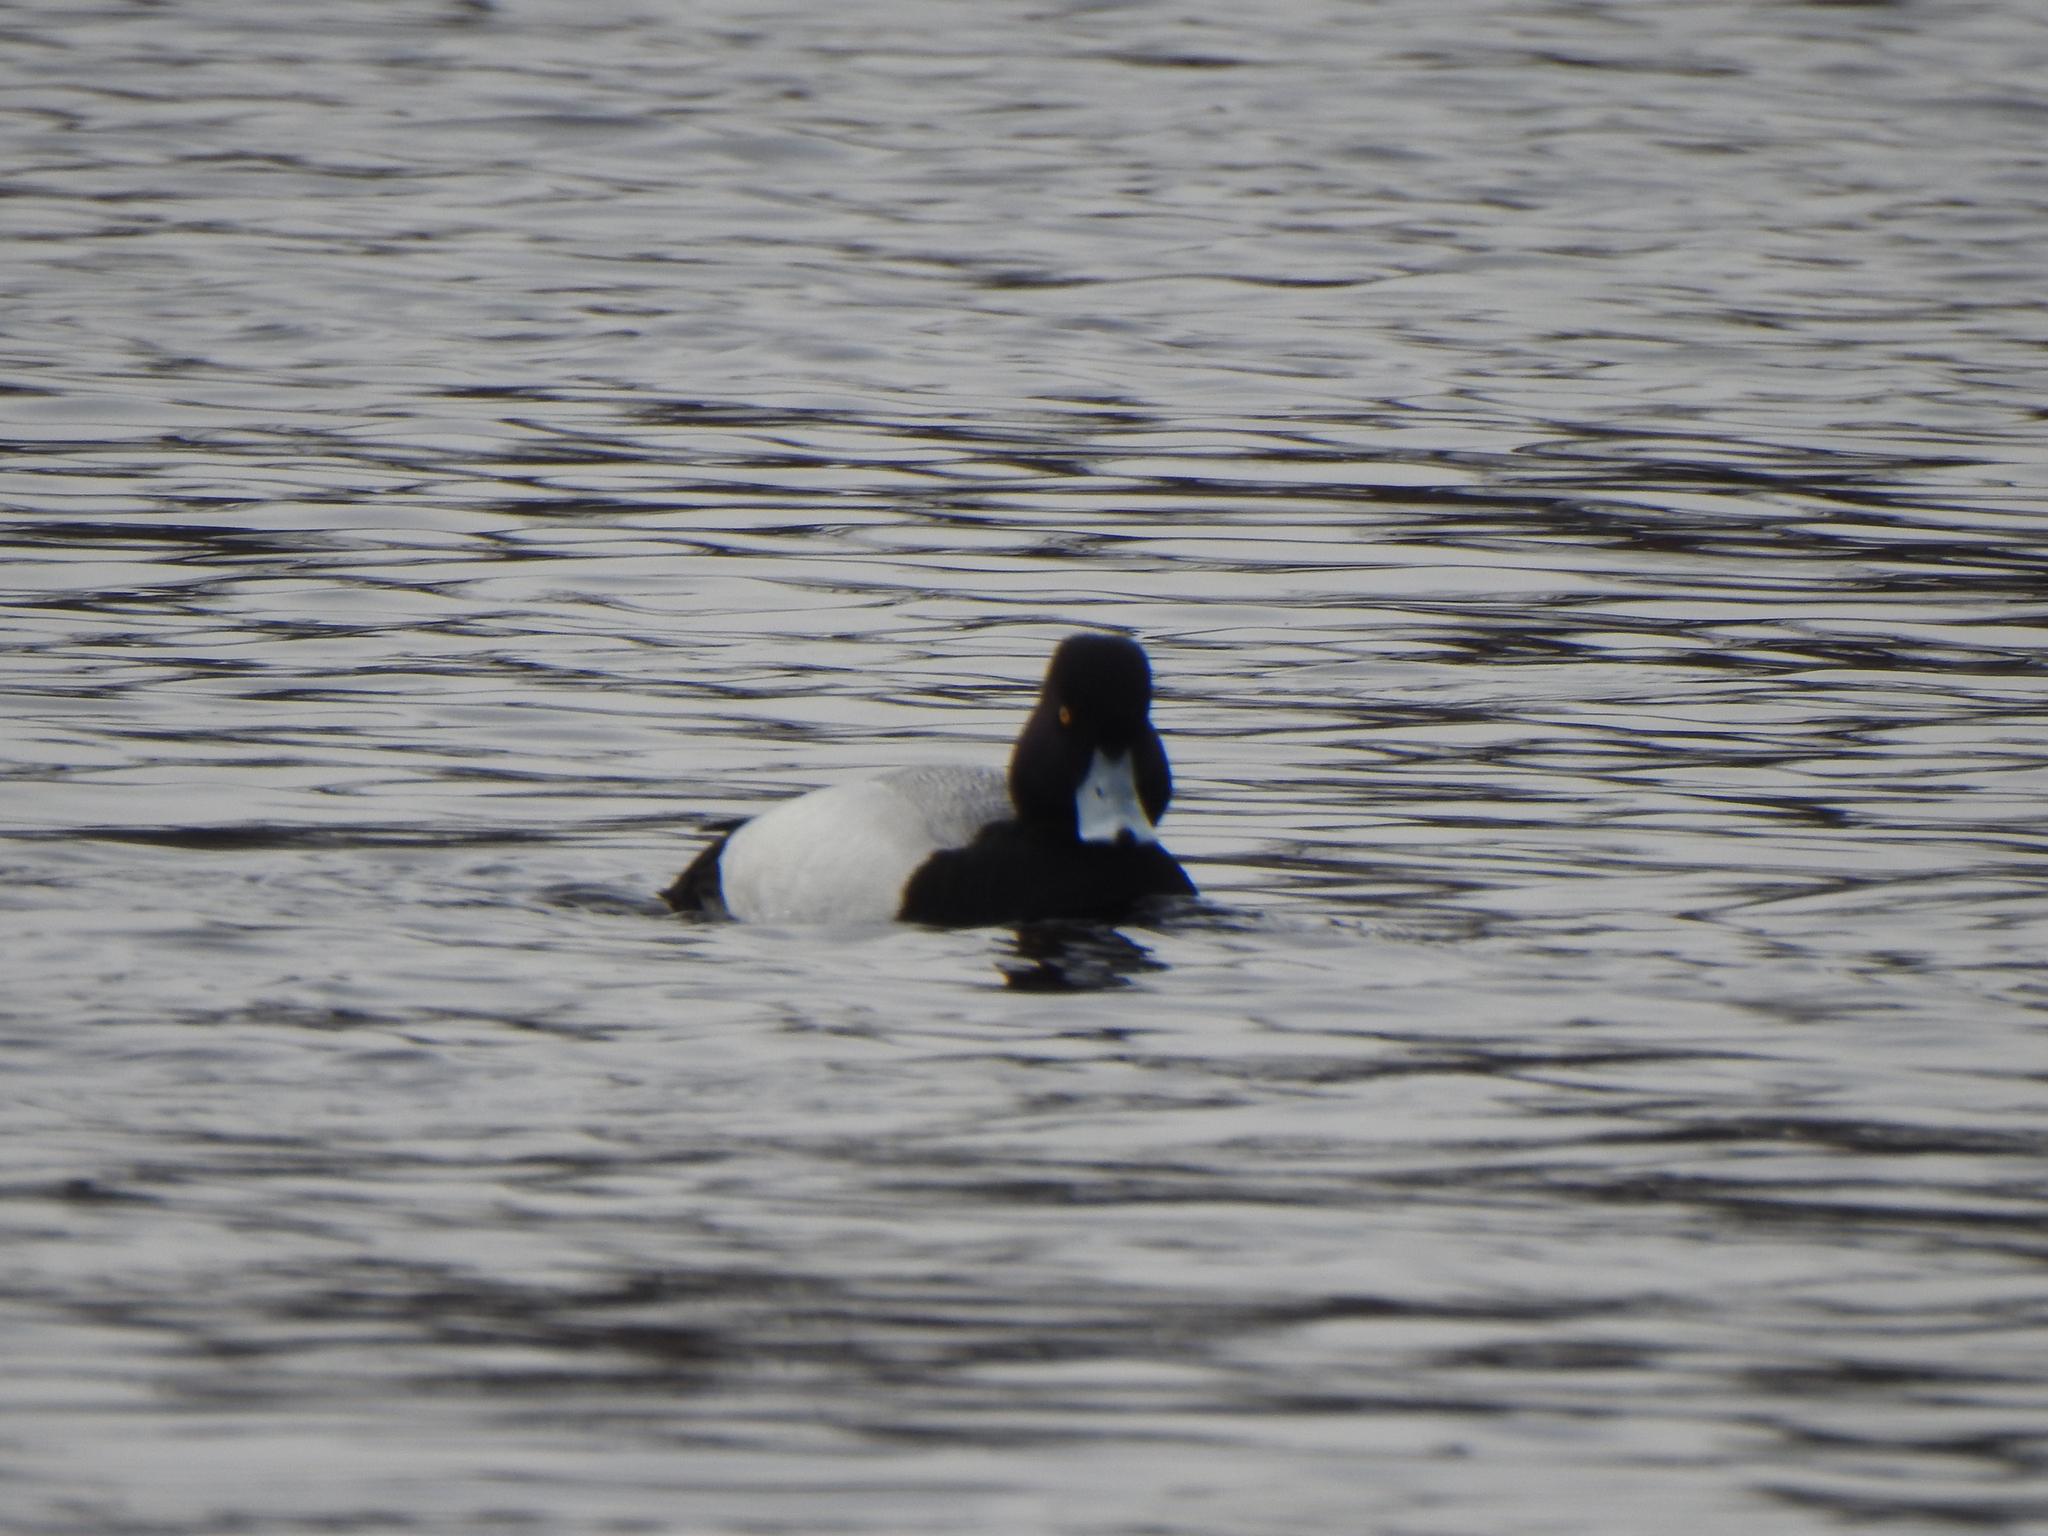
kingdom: Animalia
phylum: Chordata
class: Aves
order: Anseriformes
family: Anatidae
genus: Aythya
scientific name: Aythya affinis
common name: Lesser scaup
